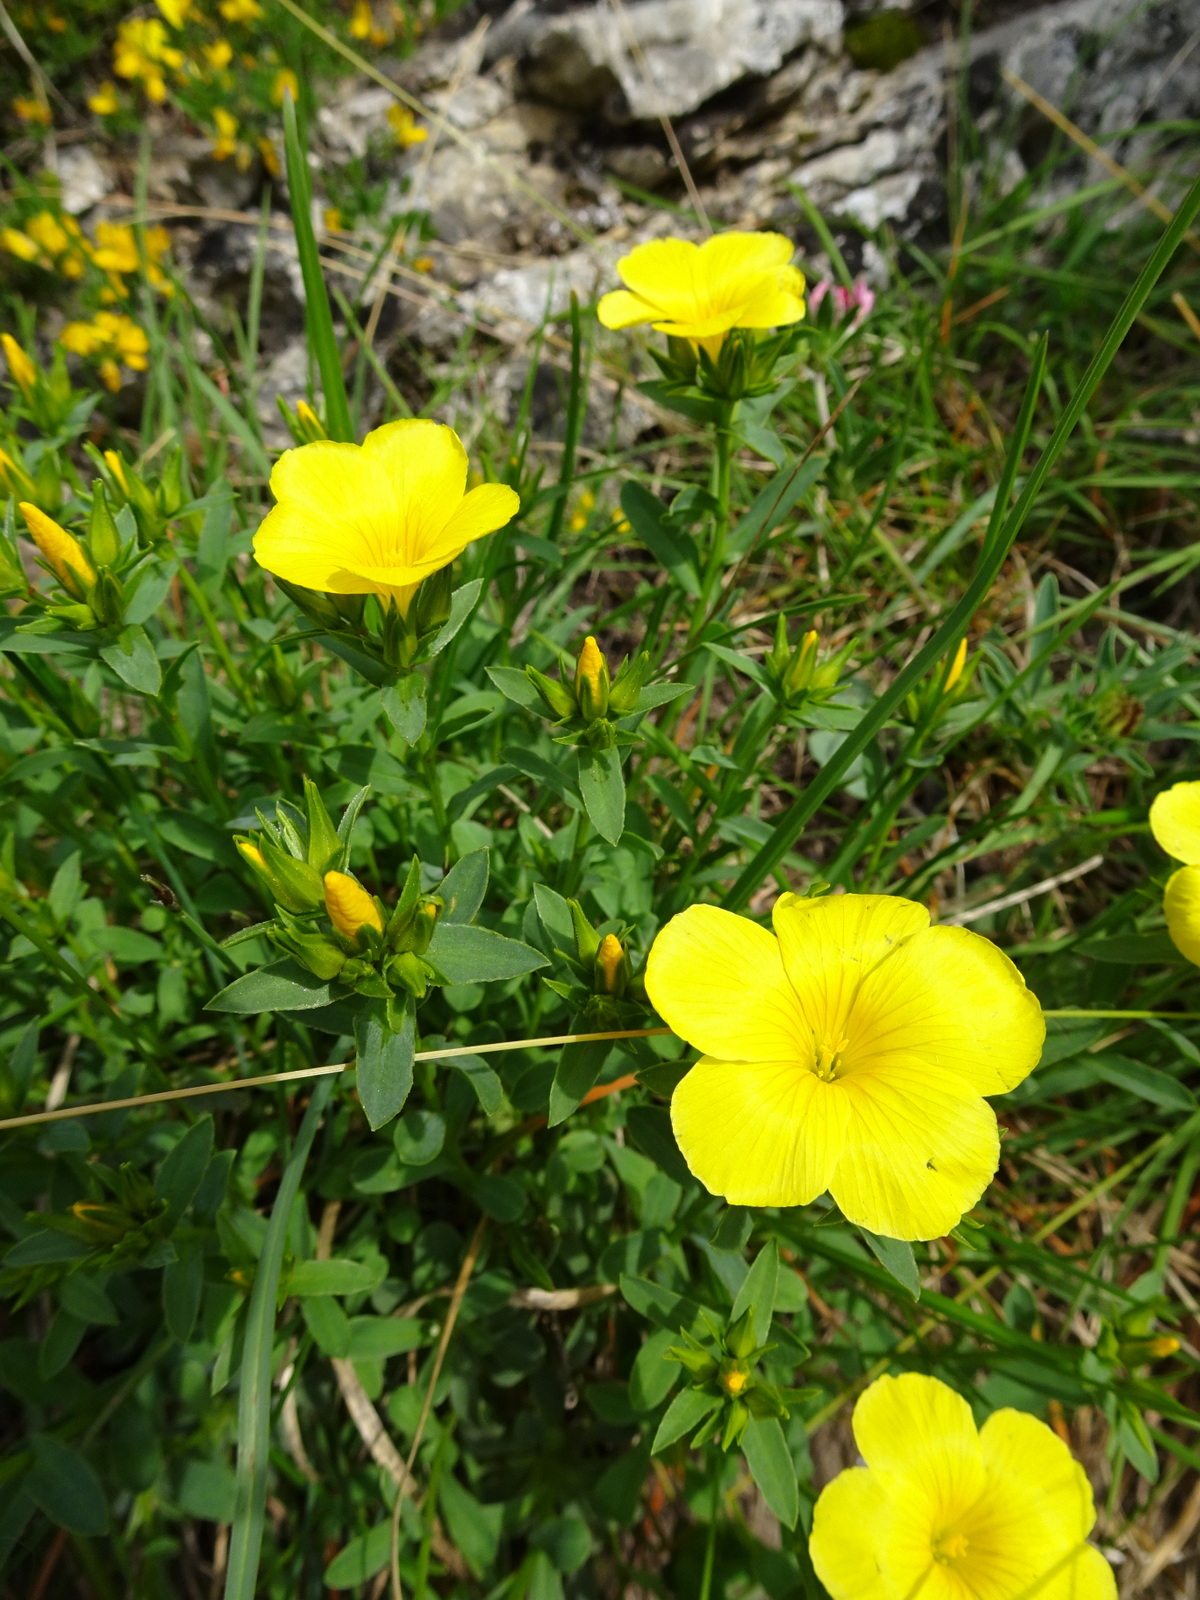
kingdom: Plantae
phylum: Tracheophyta
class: Magnoliopsida
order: Malpighiales
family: Linaceae
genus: Linum
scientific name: Linum campanulatum
